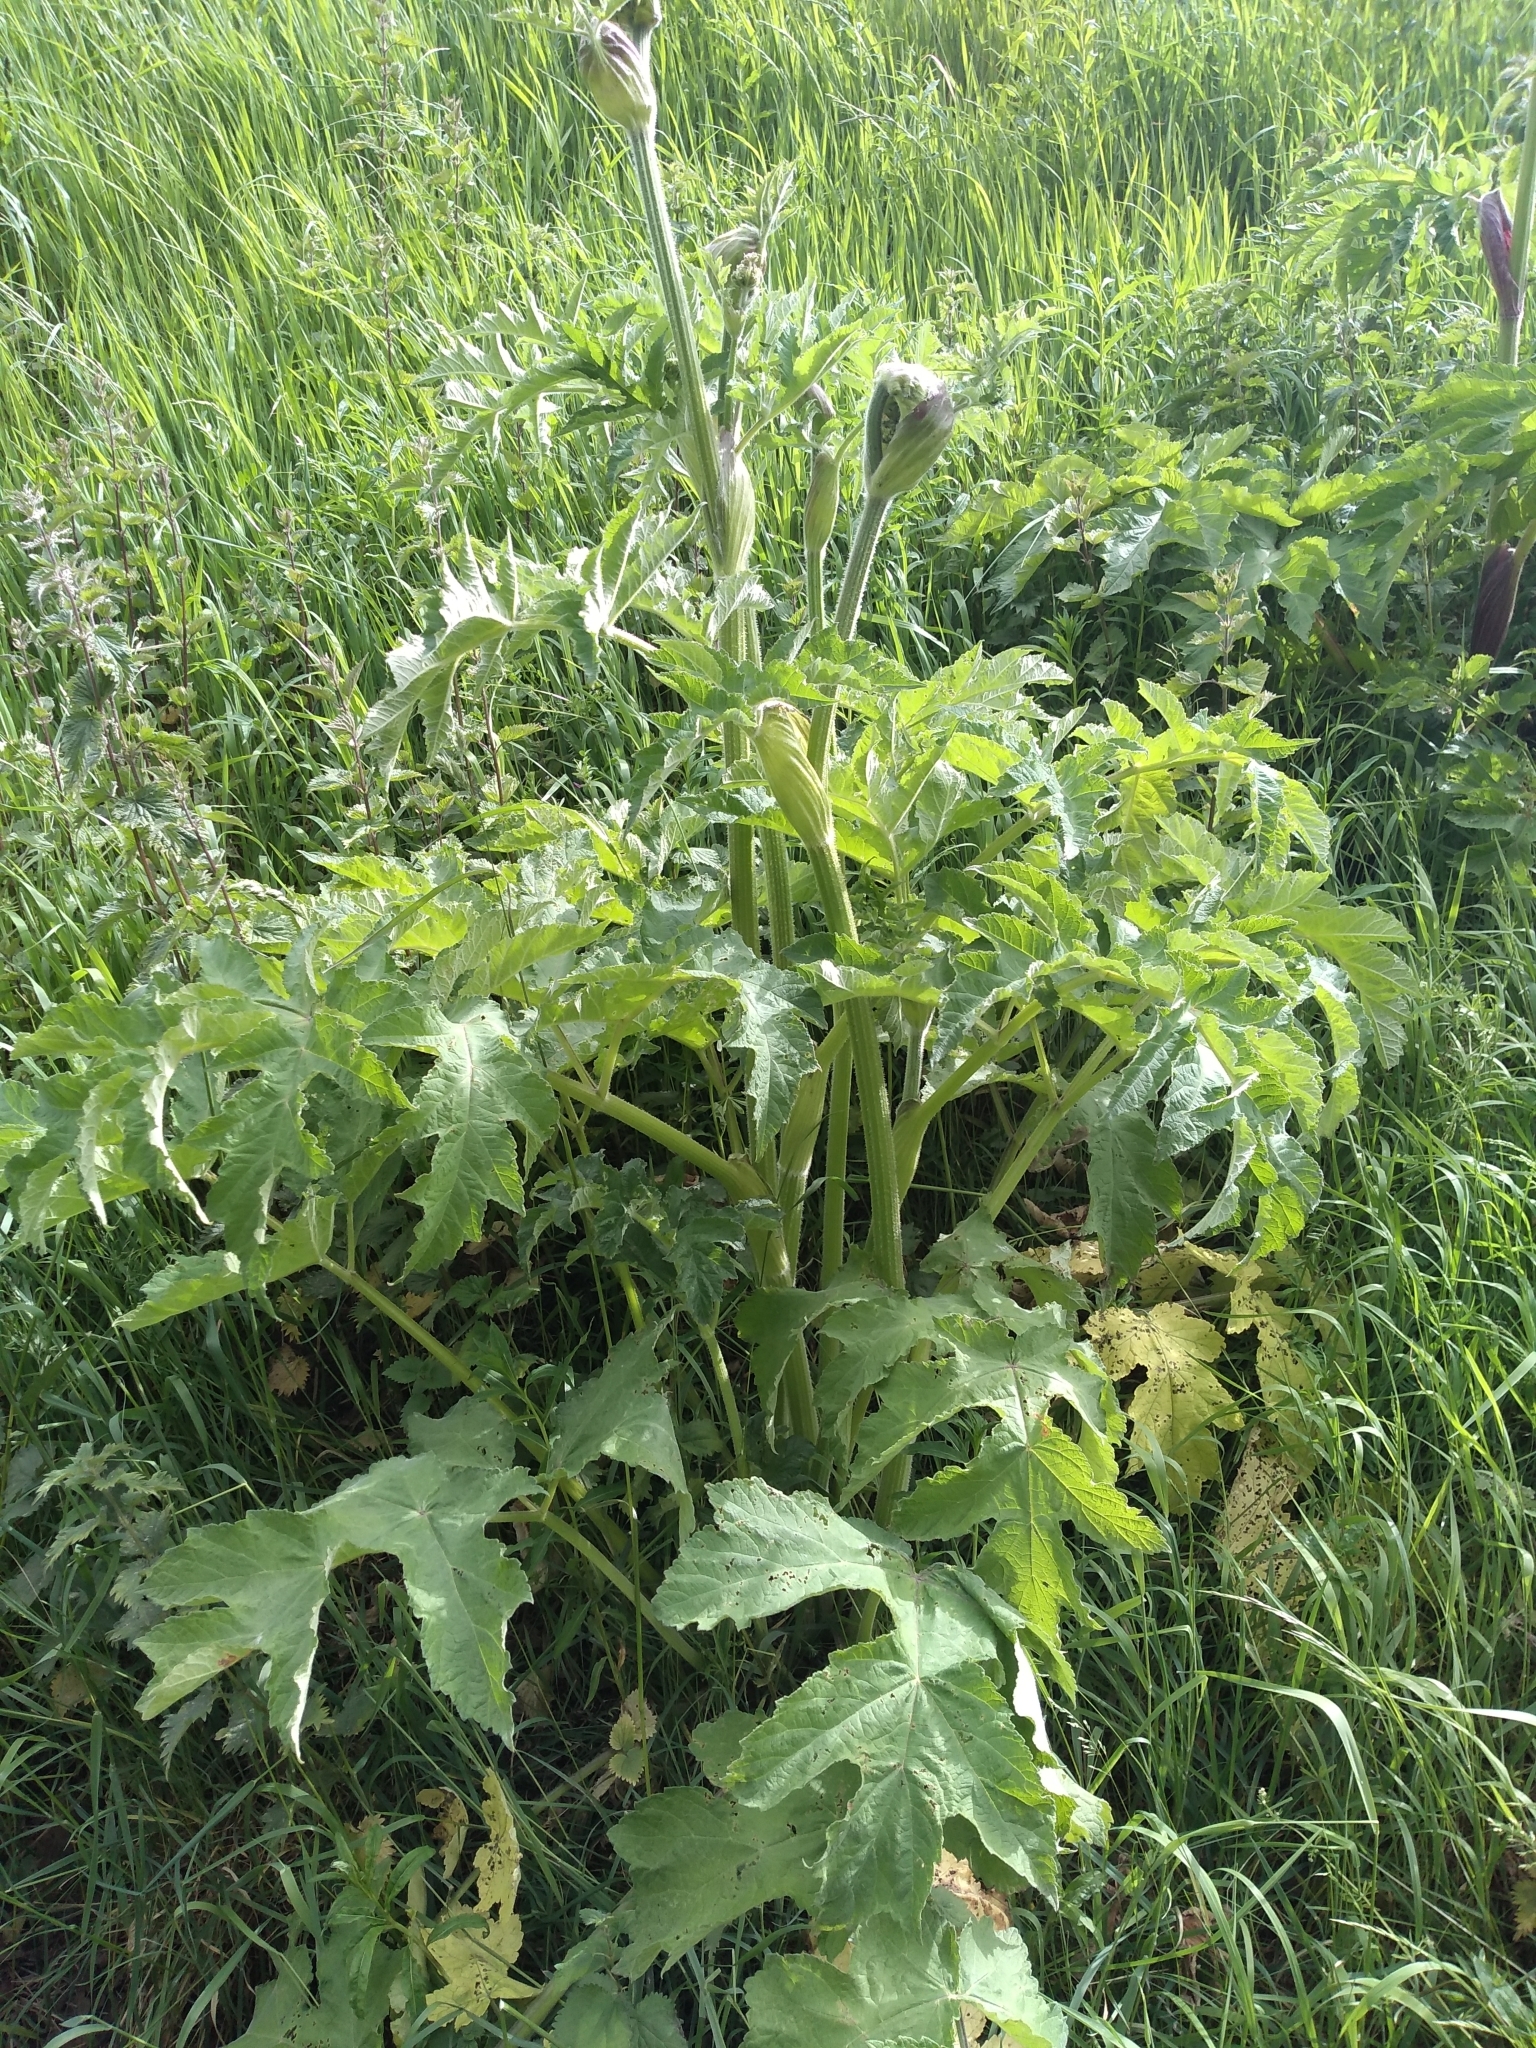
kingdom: Plantae
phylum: Tracheophyta
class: Magnoliopsida
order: Apiales
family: Apiaceae
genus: Heracleum
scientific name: Heracleum sphondylium
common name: Hogweed
